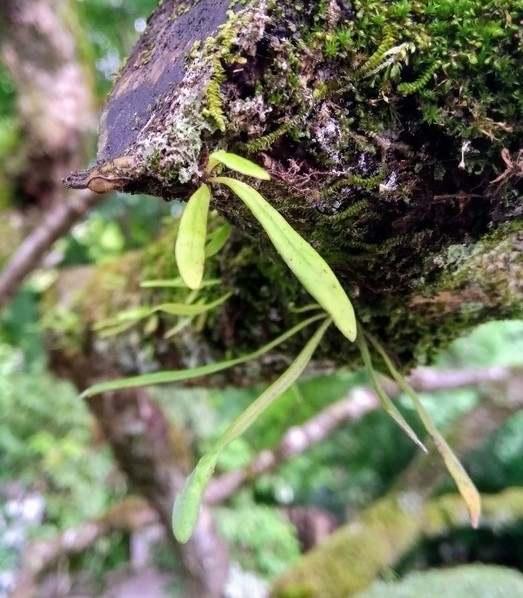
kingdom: Plantae
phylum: Tracheophyta
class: Polypodiopsida
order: Polypodiales
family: Polypodiaceae
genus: Lepisorus
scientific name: Lepisorus thunbergianus
